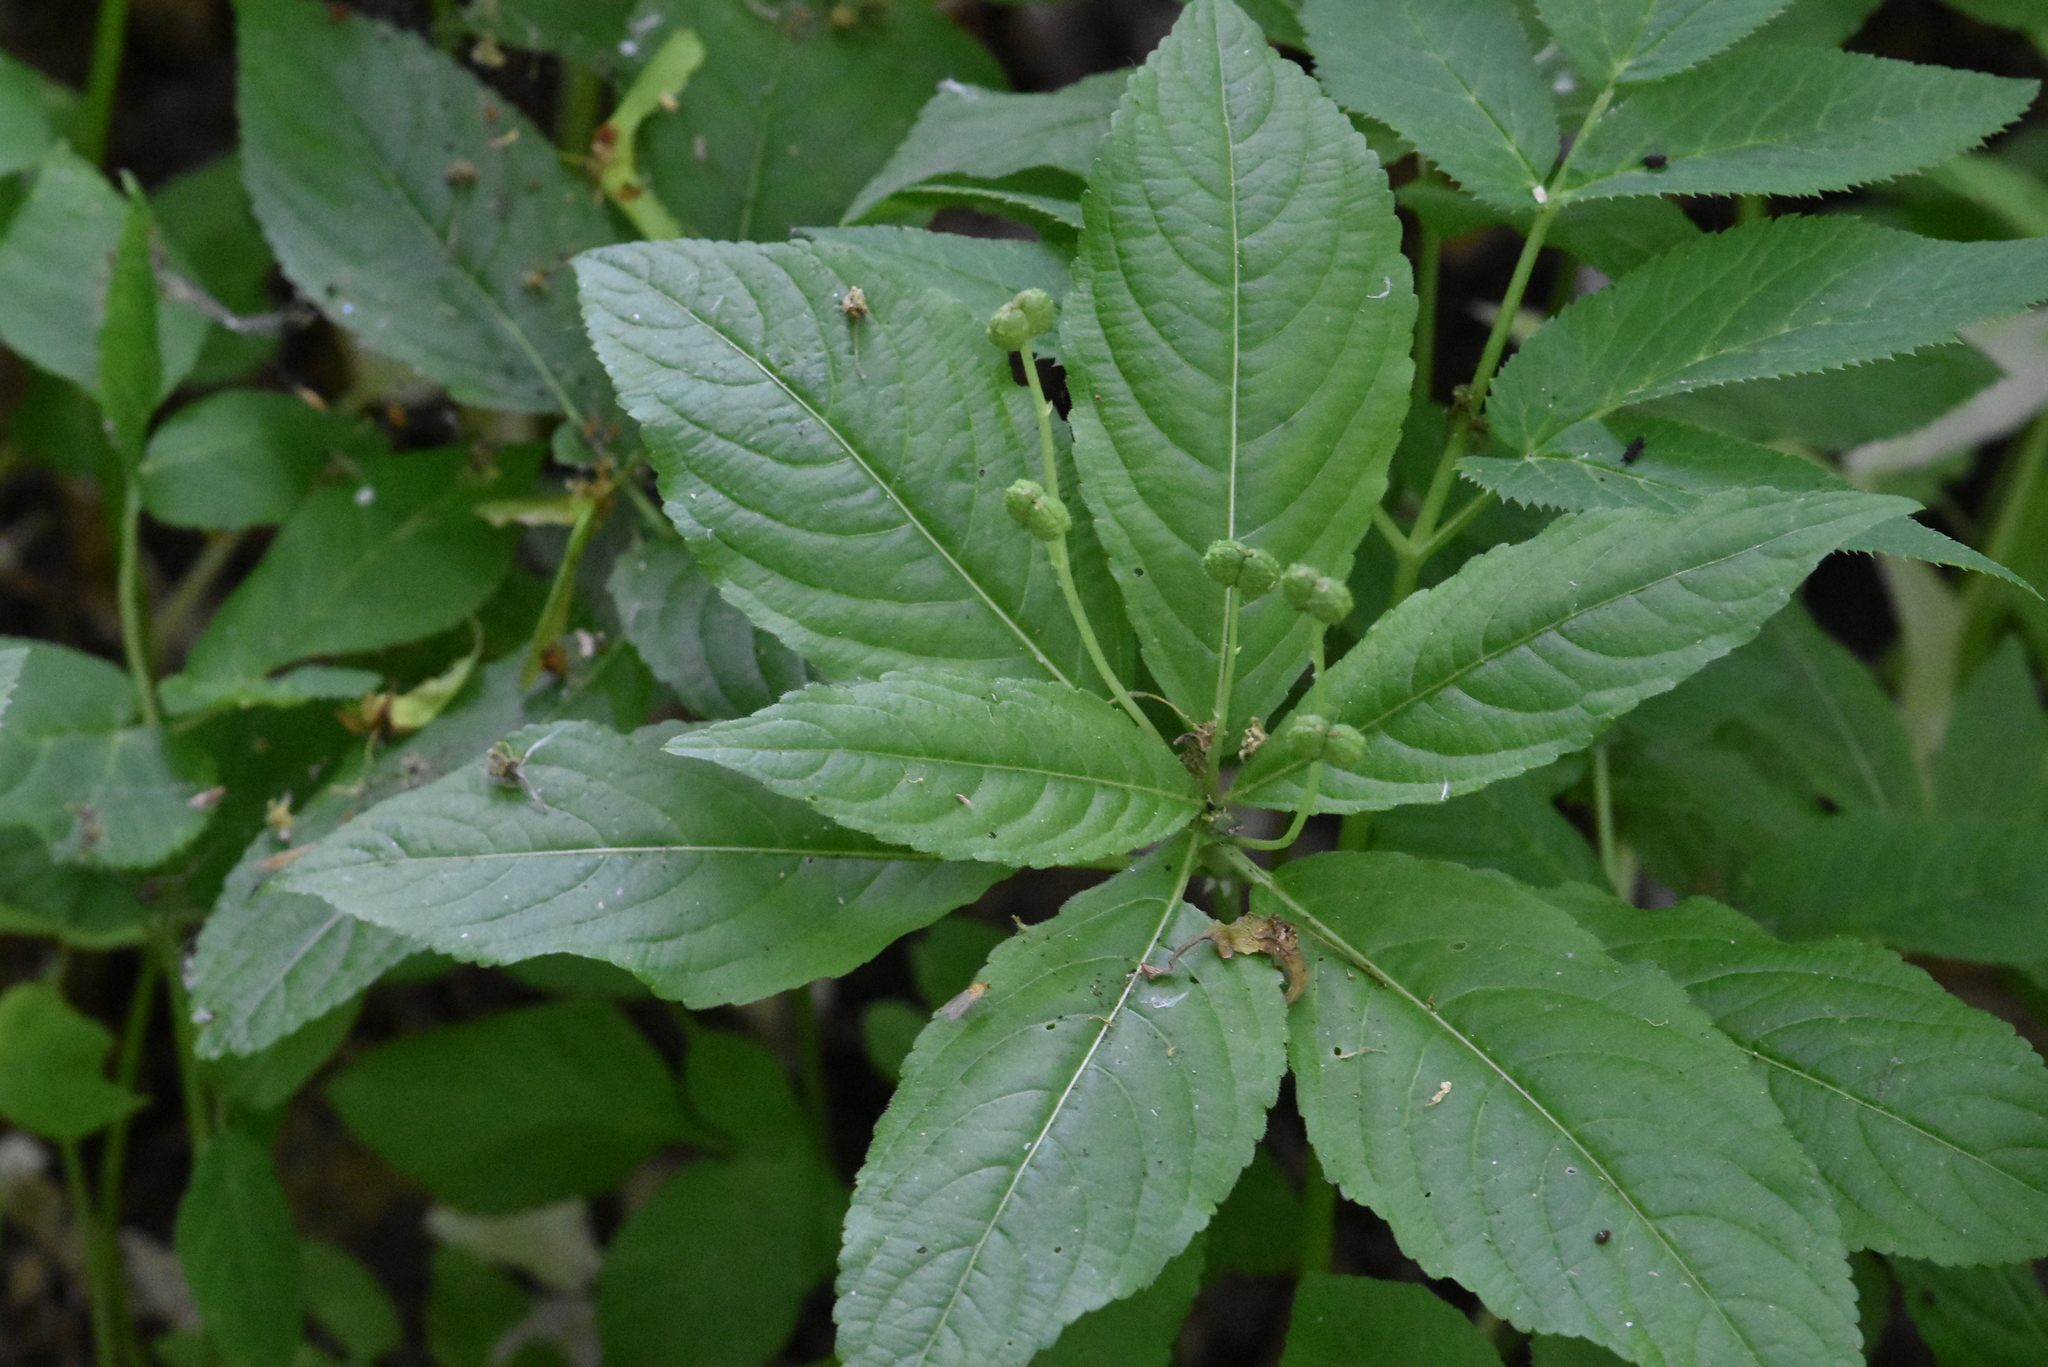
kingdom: Plantae
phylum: Tracheophyta
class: Magnoliopsida
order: Malpighiales
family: Euphorbiaceae
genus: Mercurialis
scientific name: Mercurialis perennis
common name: Dog mercury
